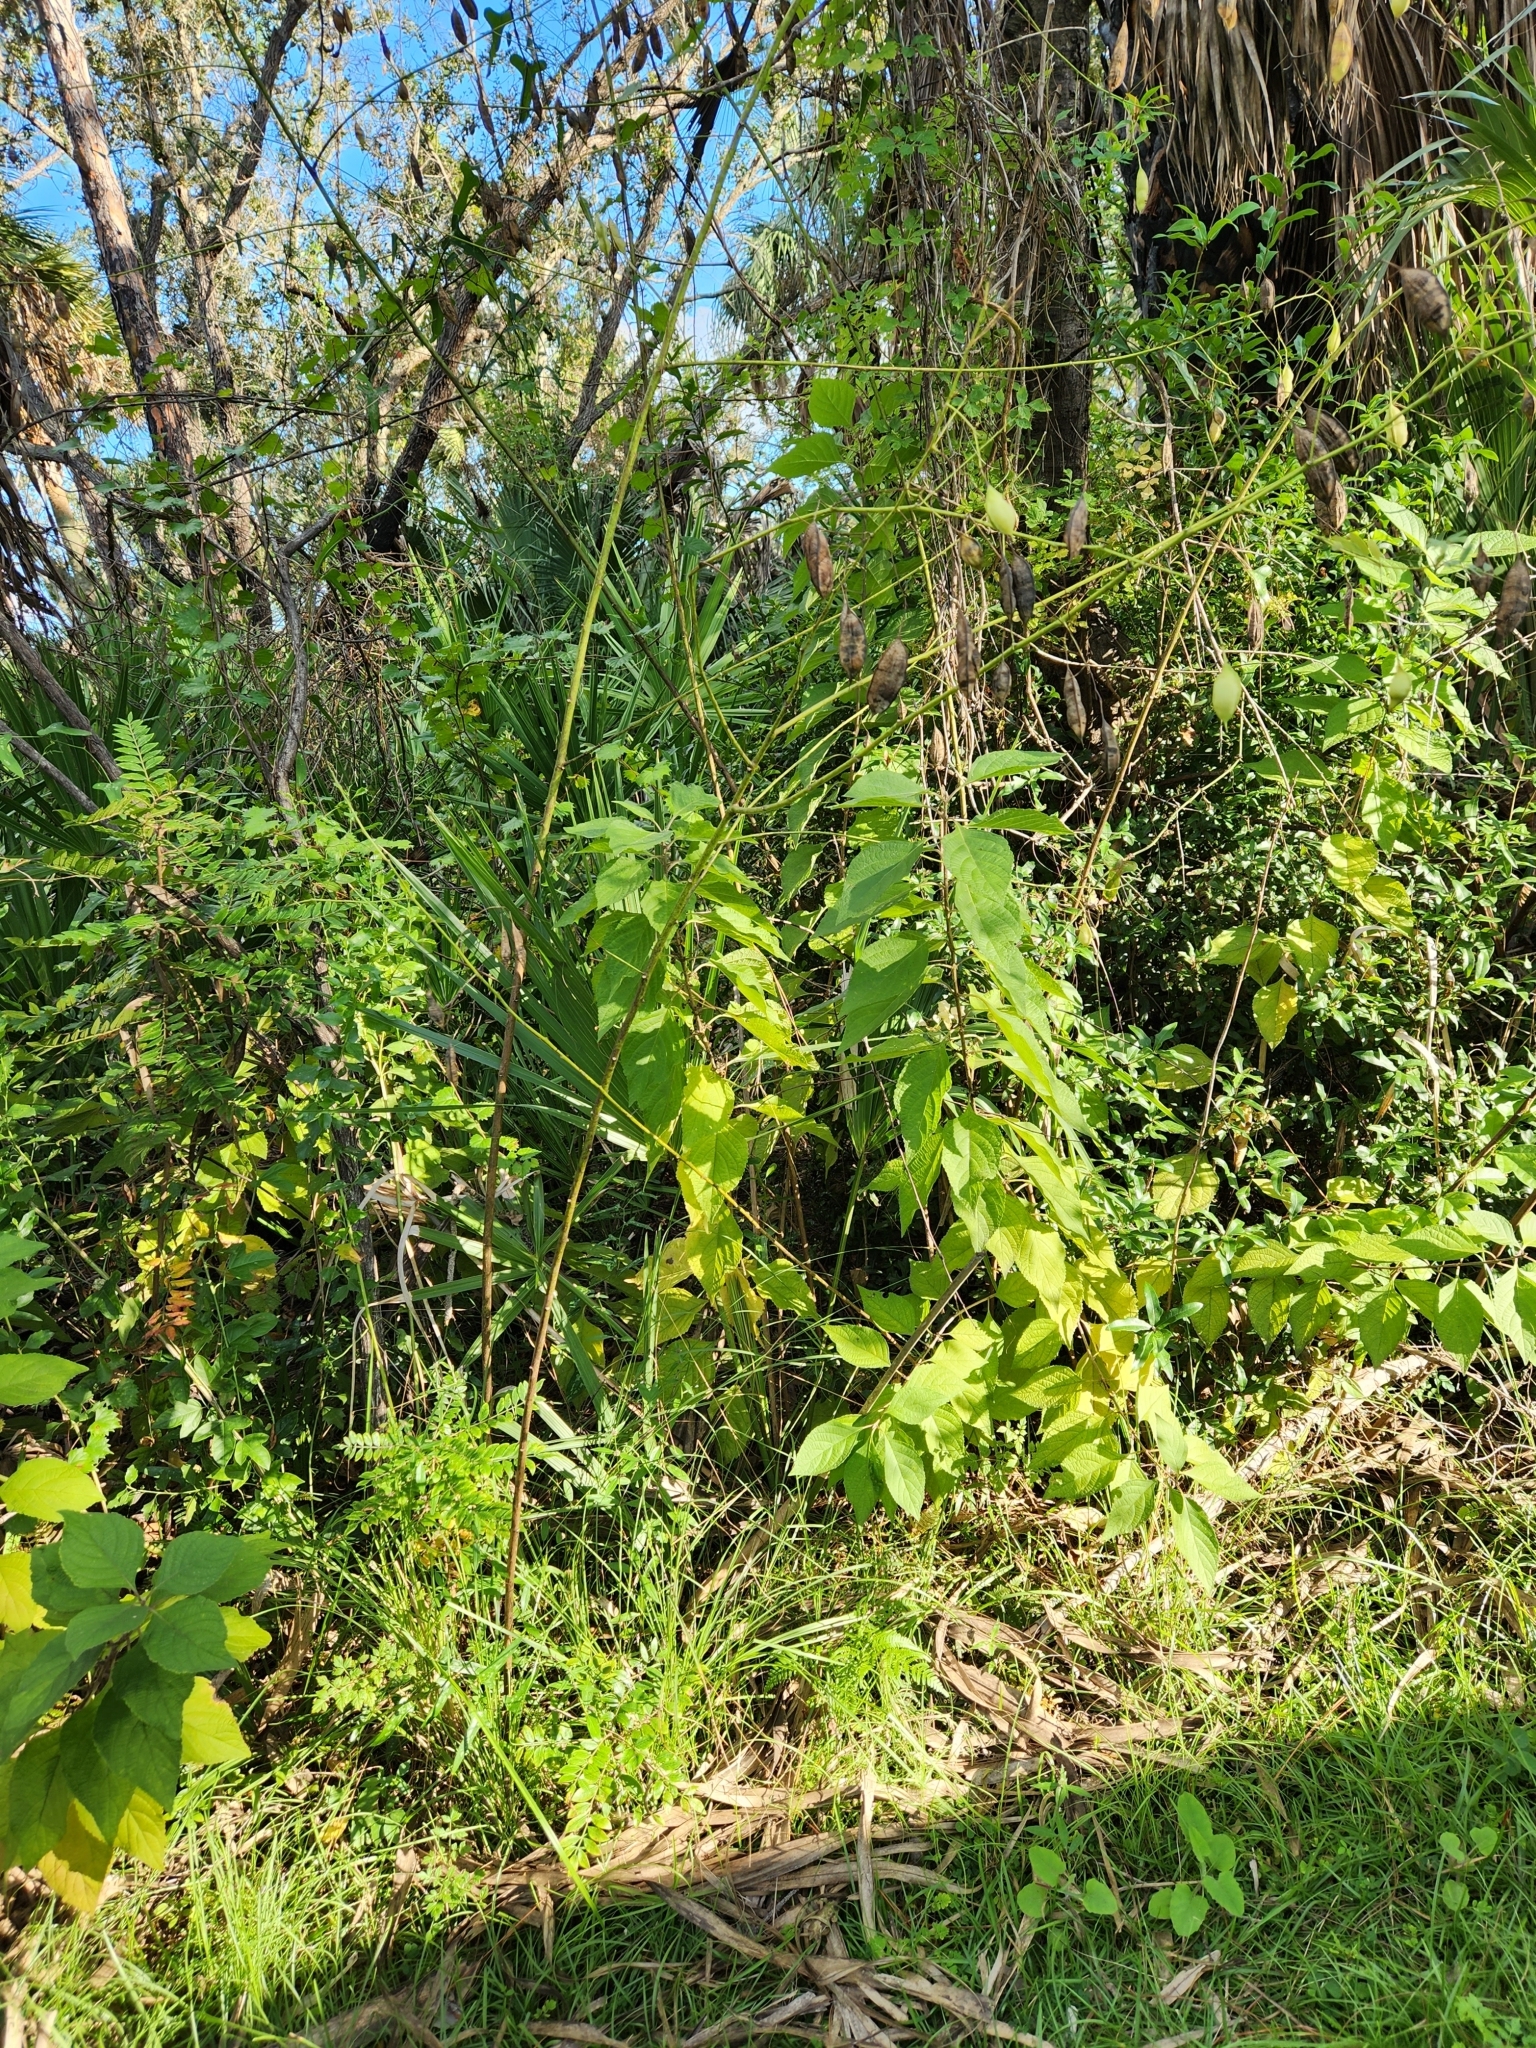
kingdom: Plantae
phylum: Tracheophyta
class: Magnoliopsida
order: Fabales
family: Fabaceae
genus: Sesbania
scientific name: Sesbania vesicaria
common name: Bagpod
